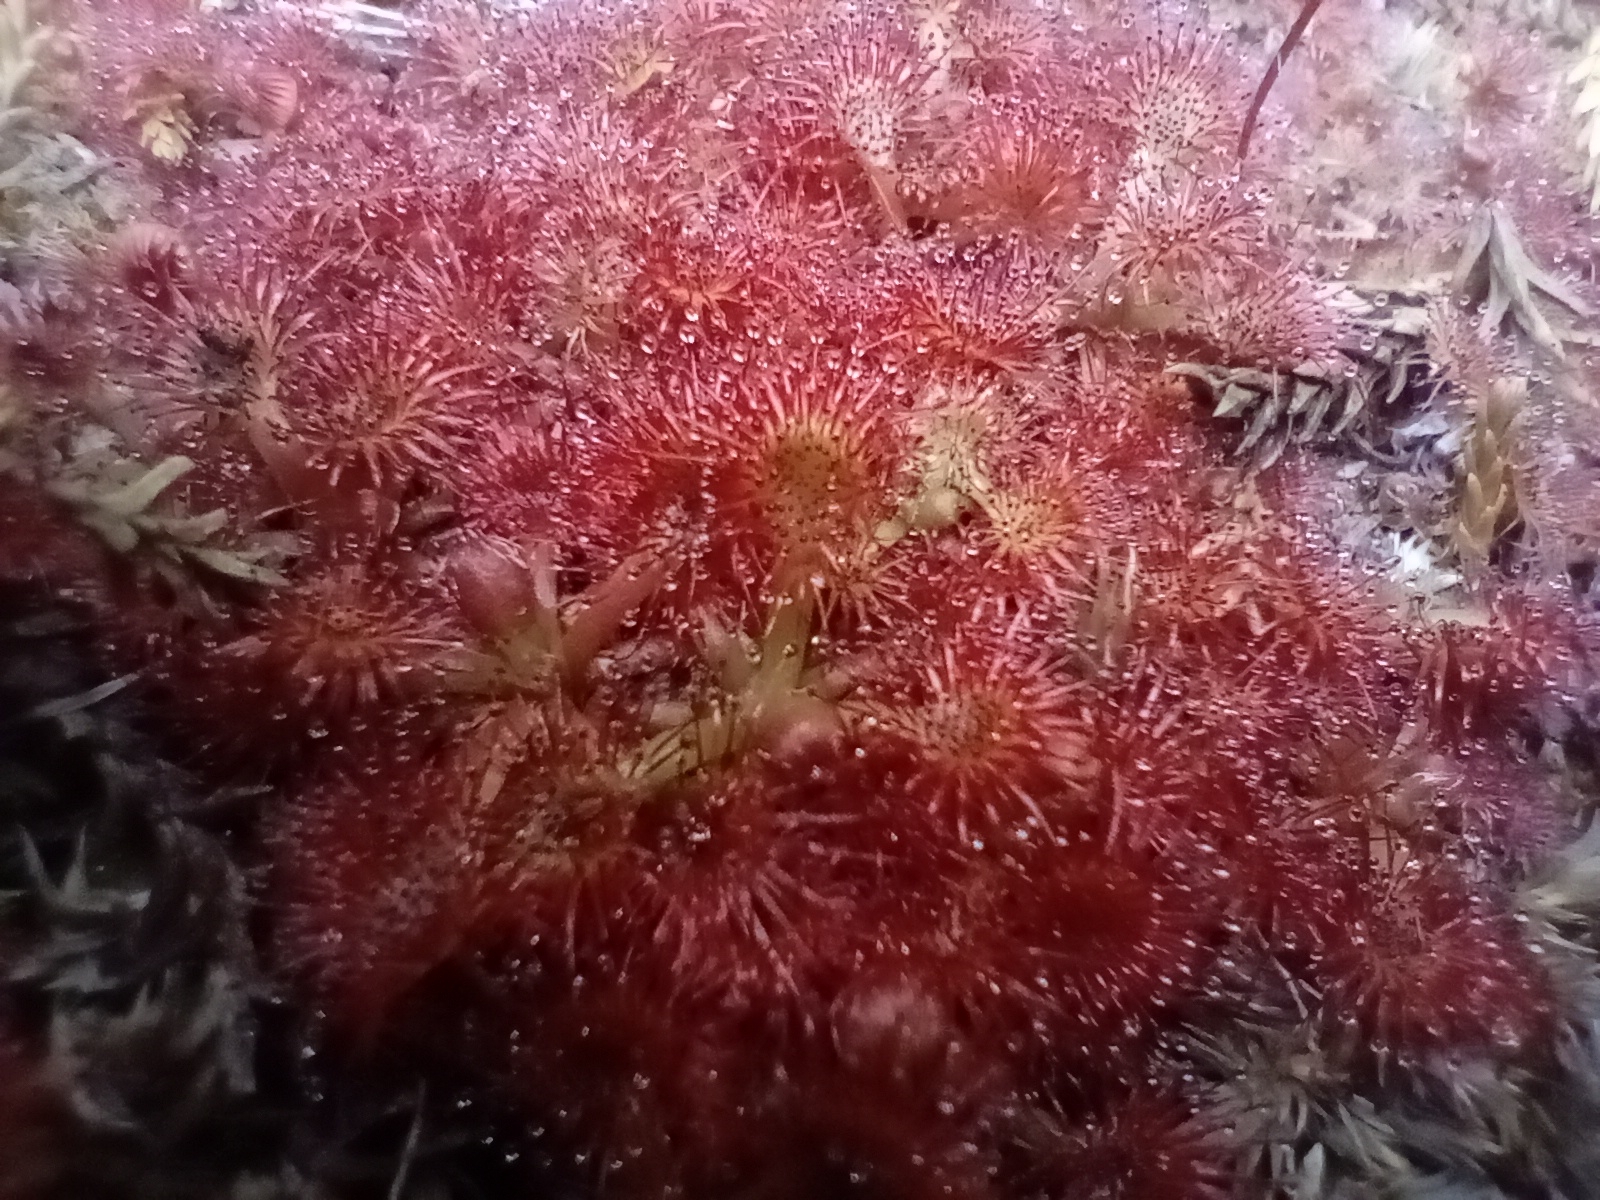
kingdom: Plantae
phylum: Tracheophyta
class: Magnoliopsida
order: Caryophyllales
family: Droseraceae
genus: Drosera
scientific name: Drosera spatulata
